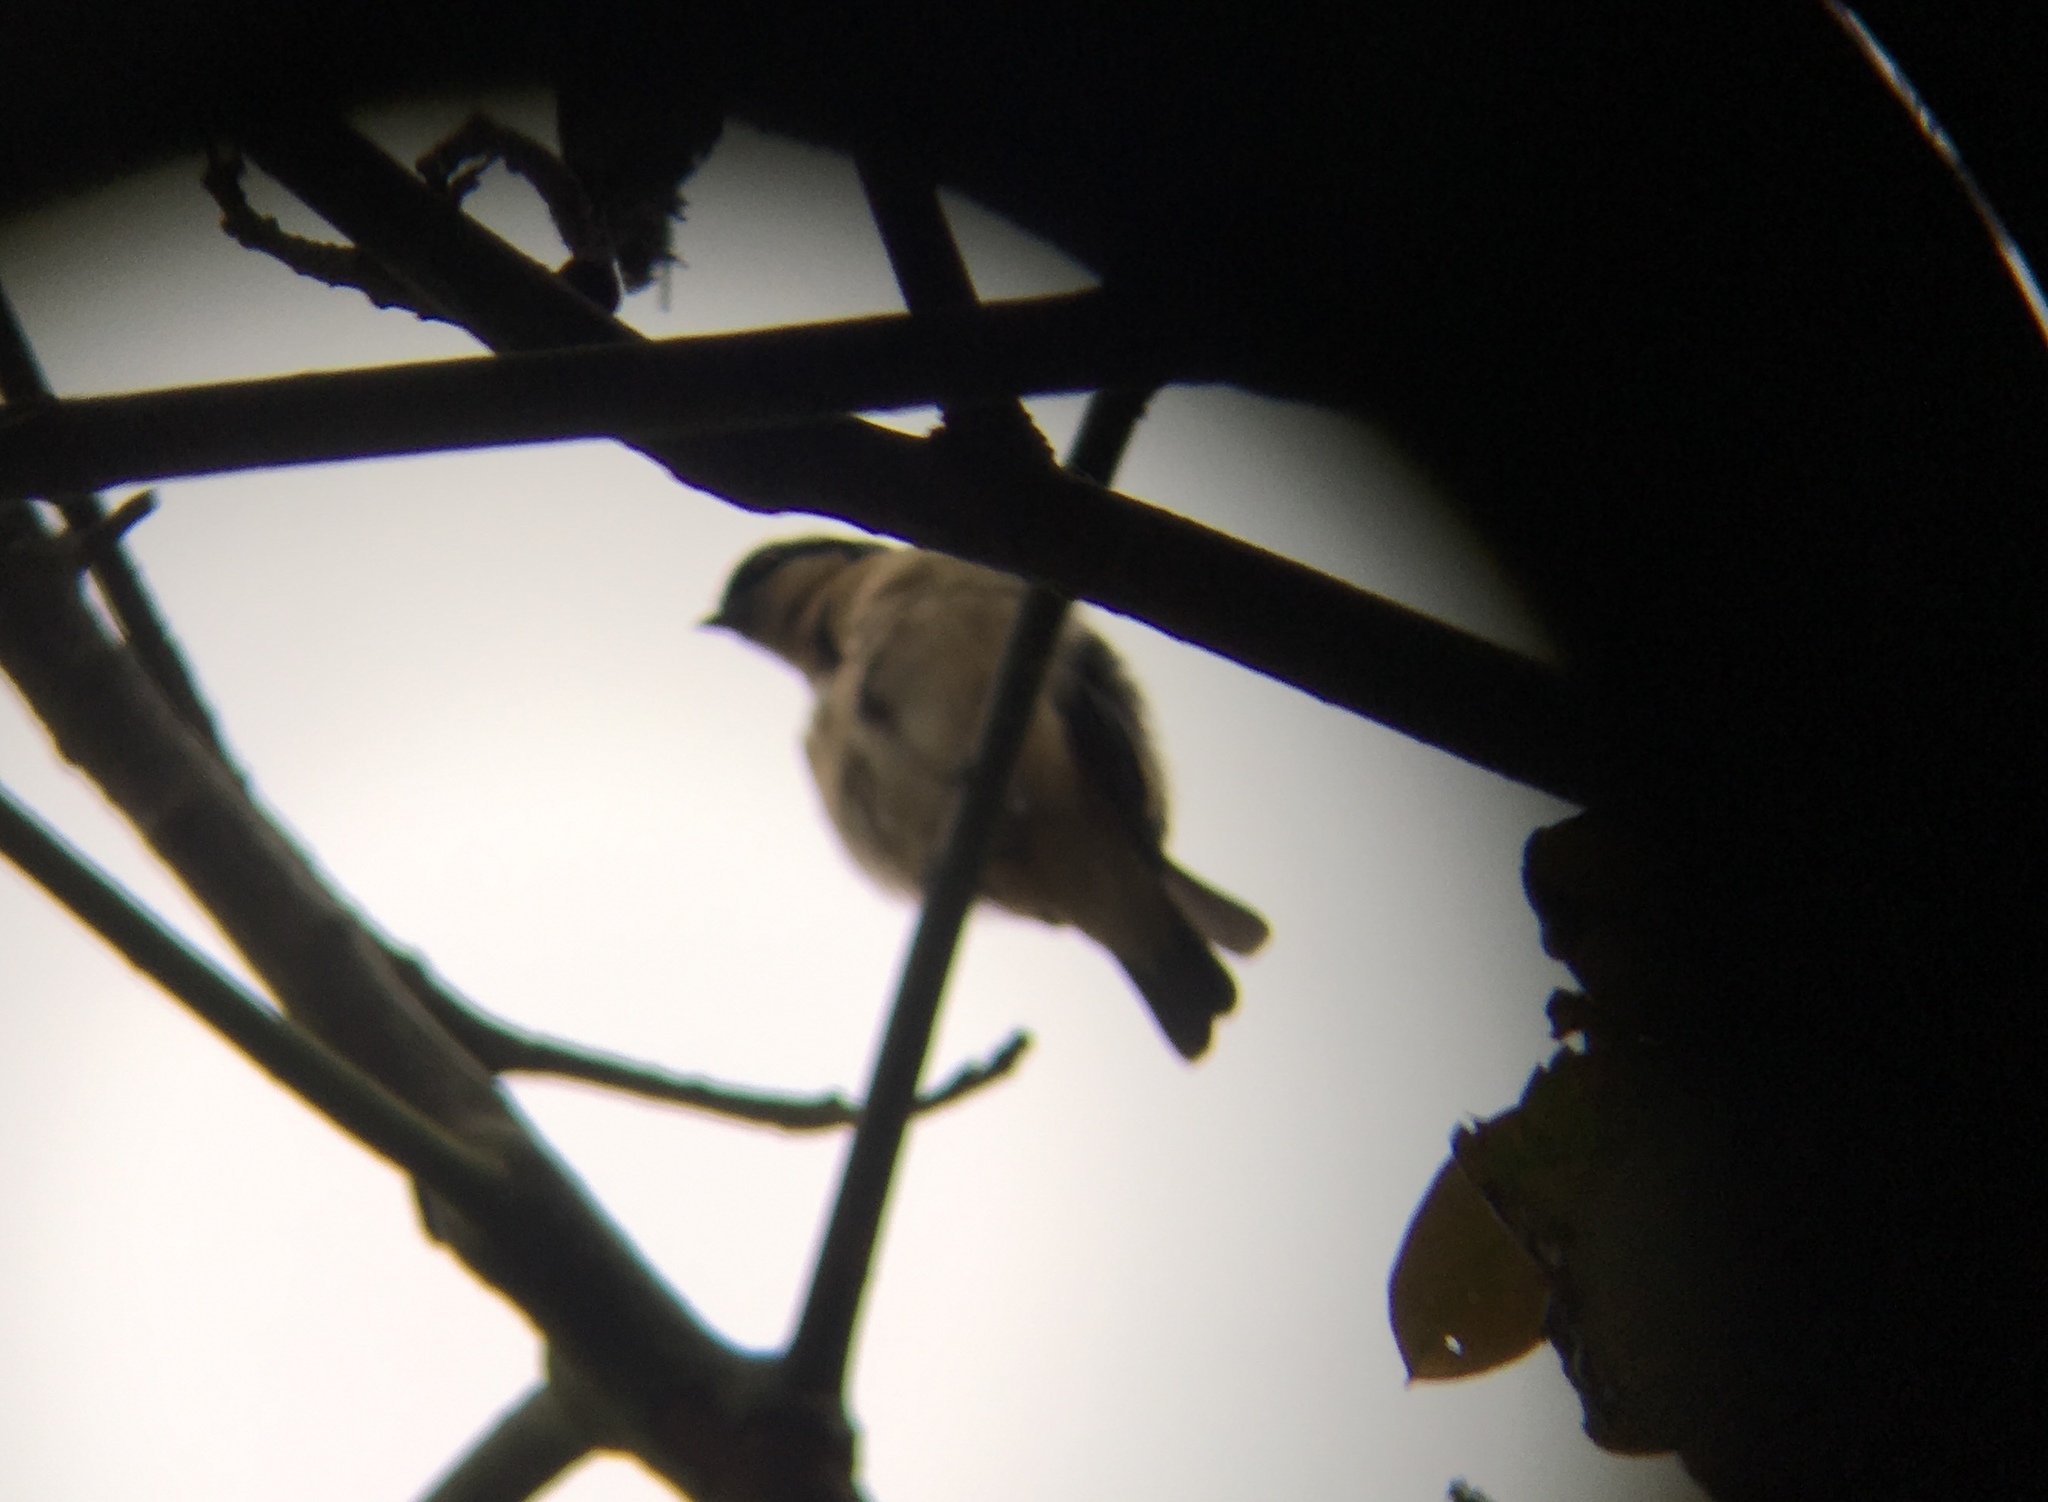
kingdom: Animalia
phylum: Chordata
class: Aves
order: Passeriformes
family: Thraupidae
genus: Pipraeidea
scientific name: Pipraeidea melanonota
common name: Fawn-breasted tanager
